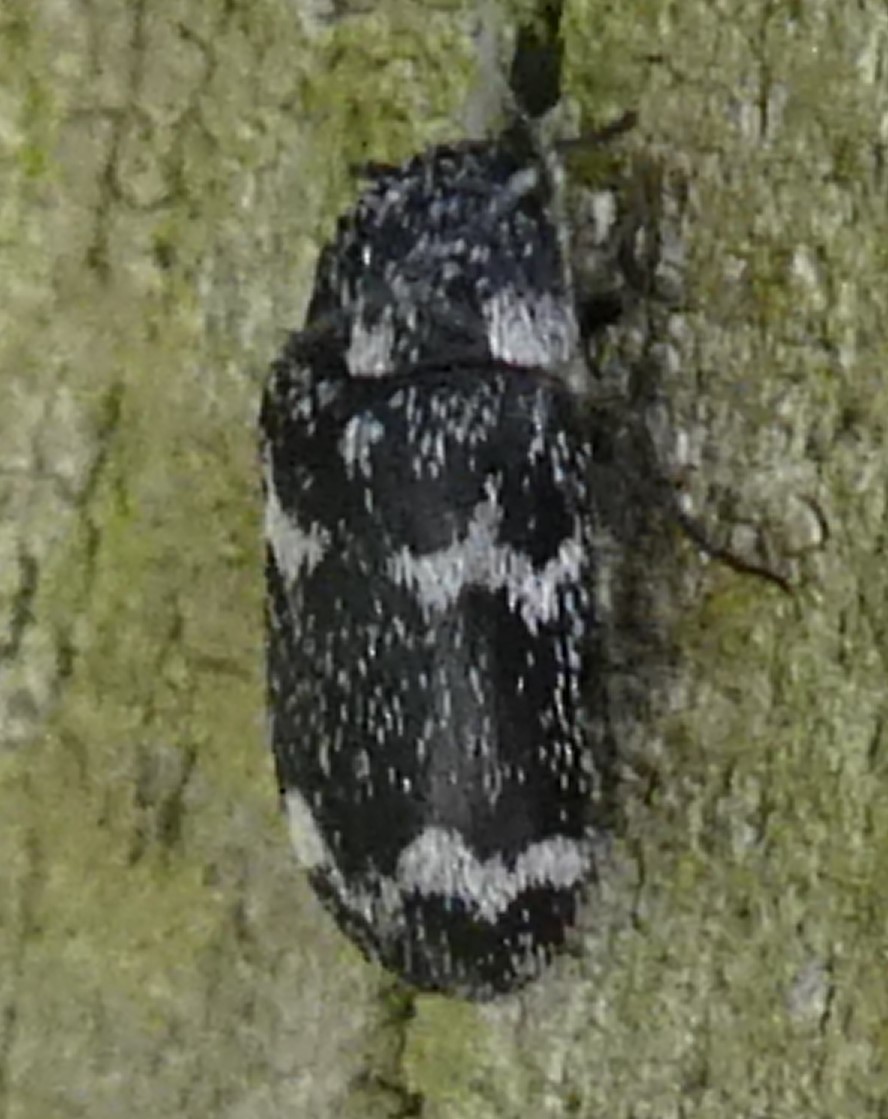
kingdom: Animalia
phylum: Arthropoda
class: Insecta
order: Coleoptera
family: Dermestidae
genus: Megatoma
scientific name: Megatoma undata
